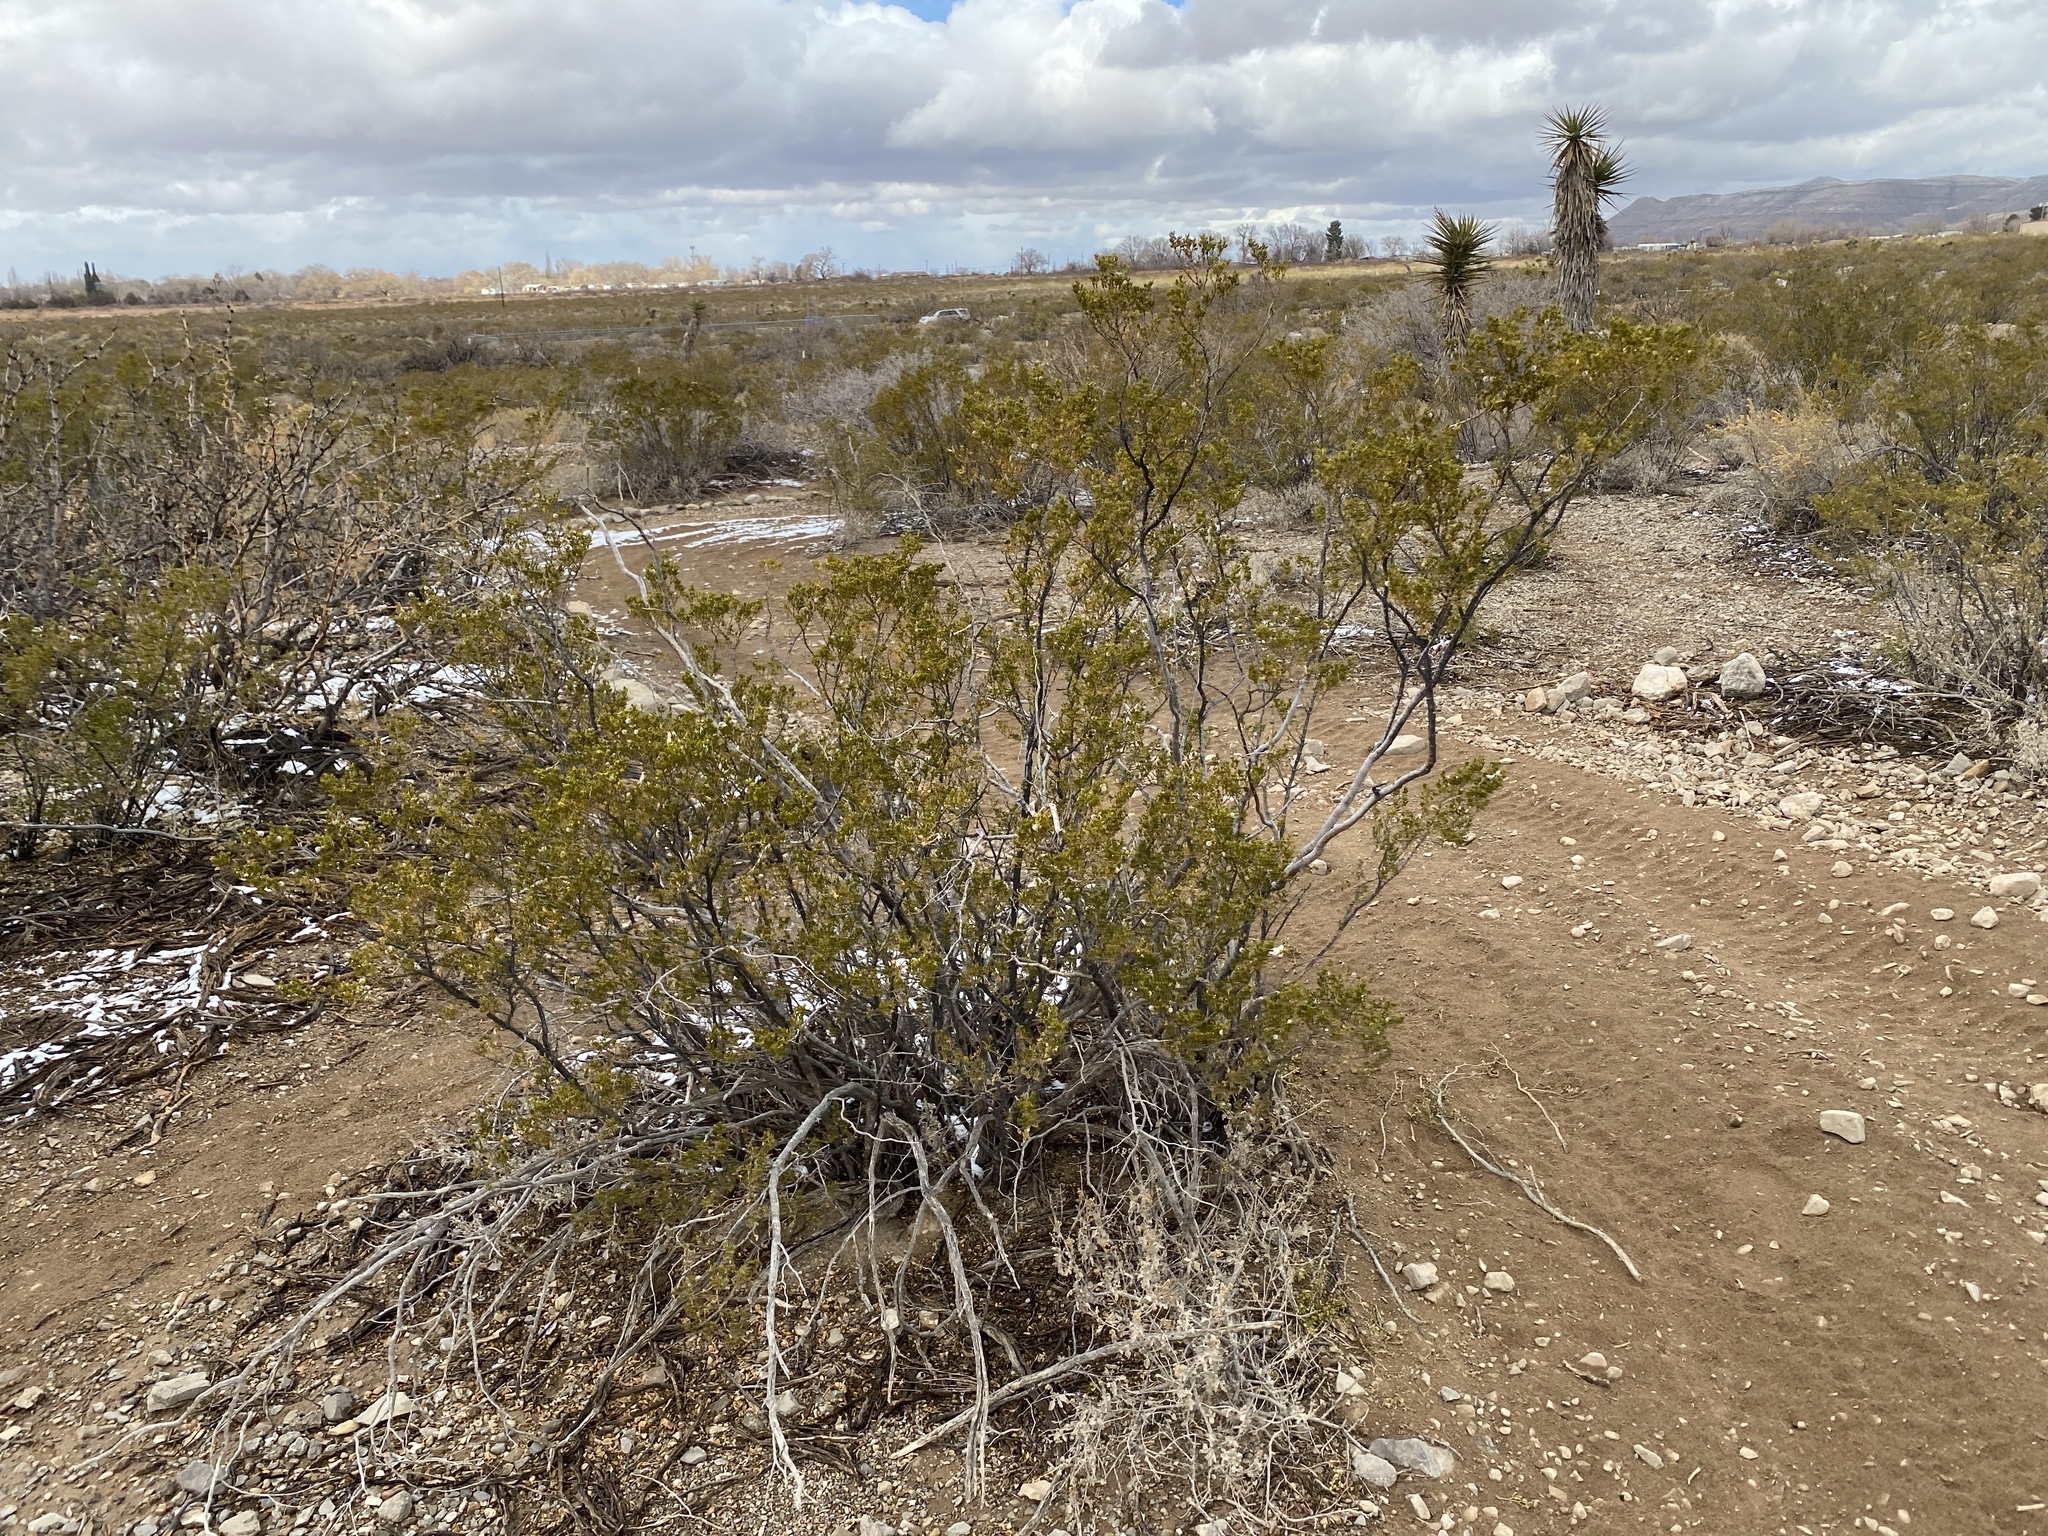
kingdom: Plantae
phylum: Tracheophyta
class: Magnoliopsida
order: Zygophyllales
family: Zygophyllaceae
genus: Larrea
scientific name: Larrea tridentata
